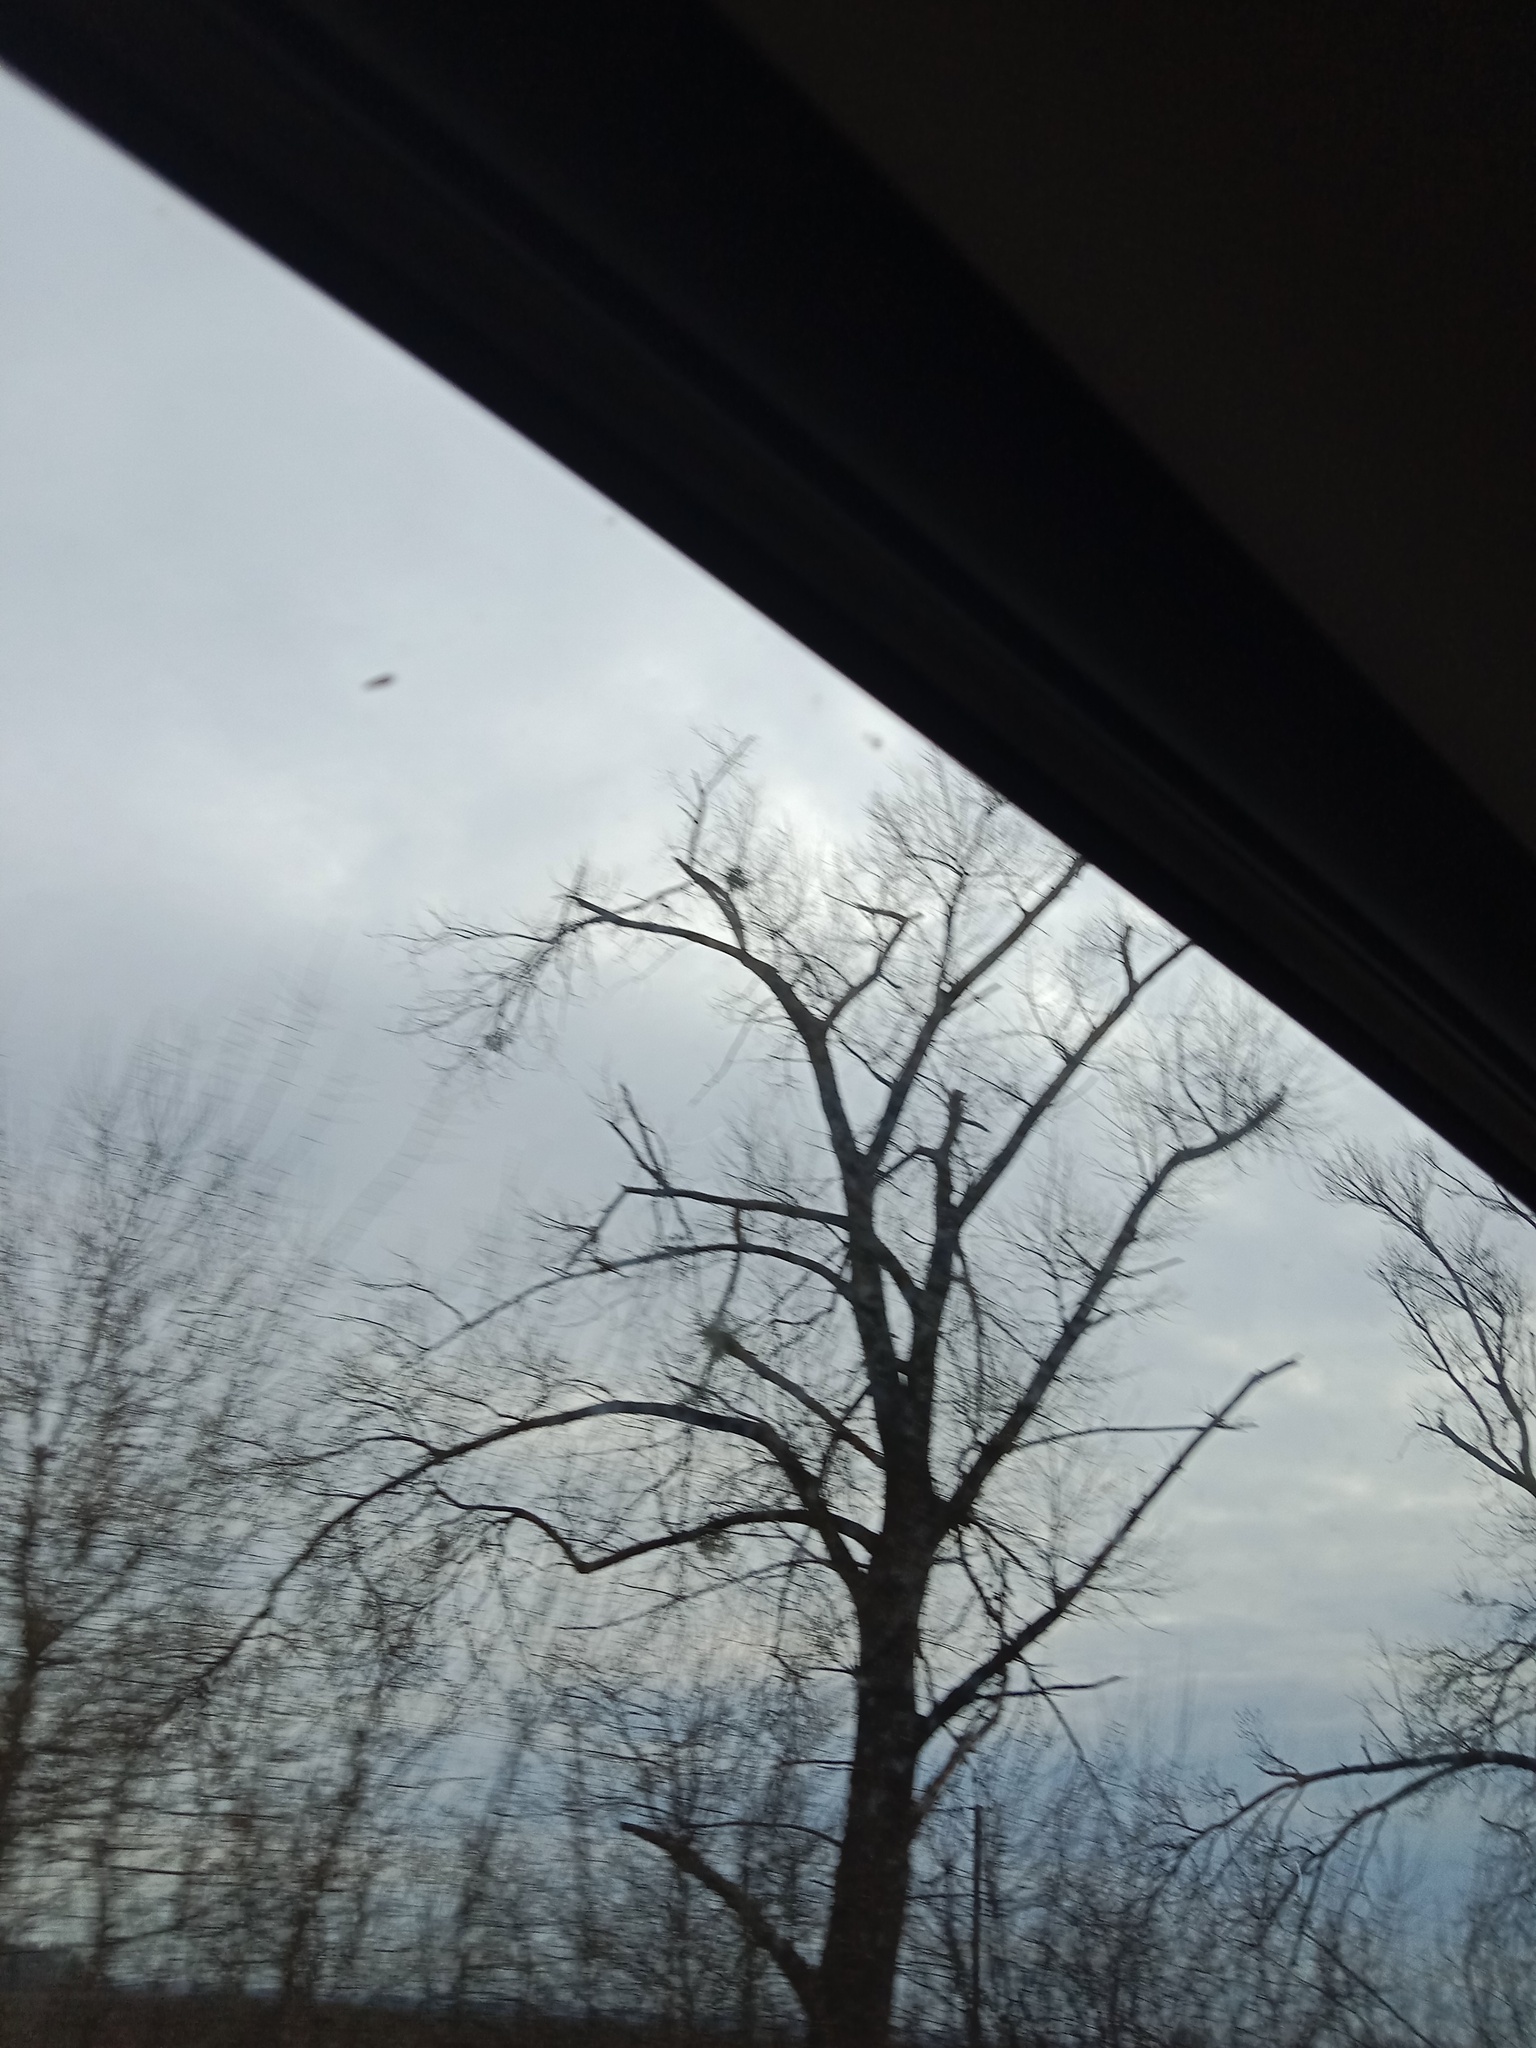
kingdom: Plantae
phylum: Tracheophyta
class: Magnoliopsida
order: Santalales
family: Viscaceae
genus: Viscum
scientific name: Viscum album
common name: Mistletoe
